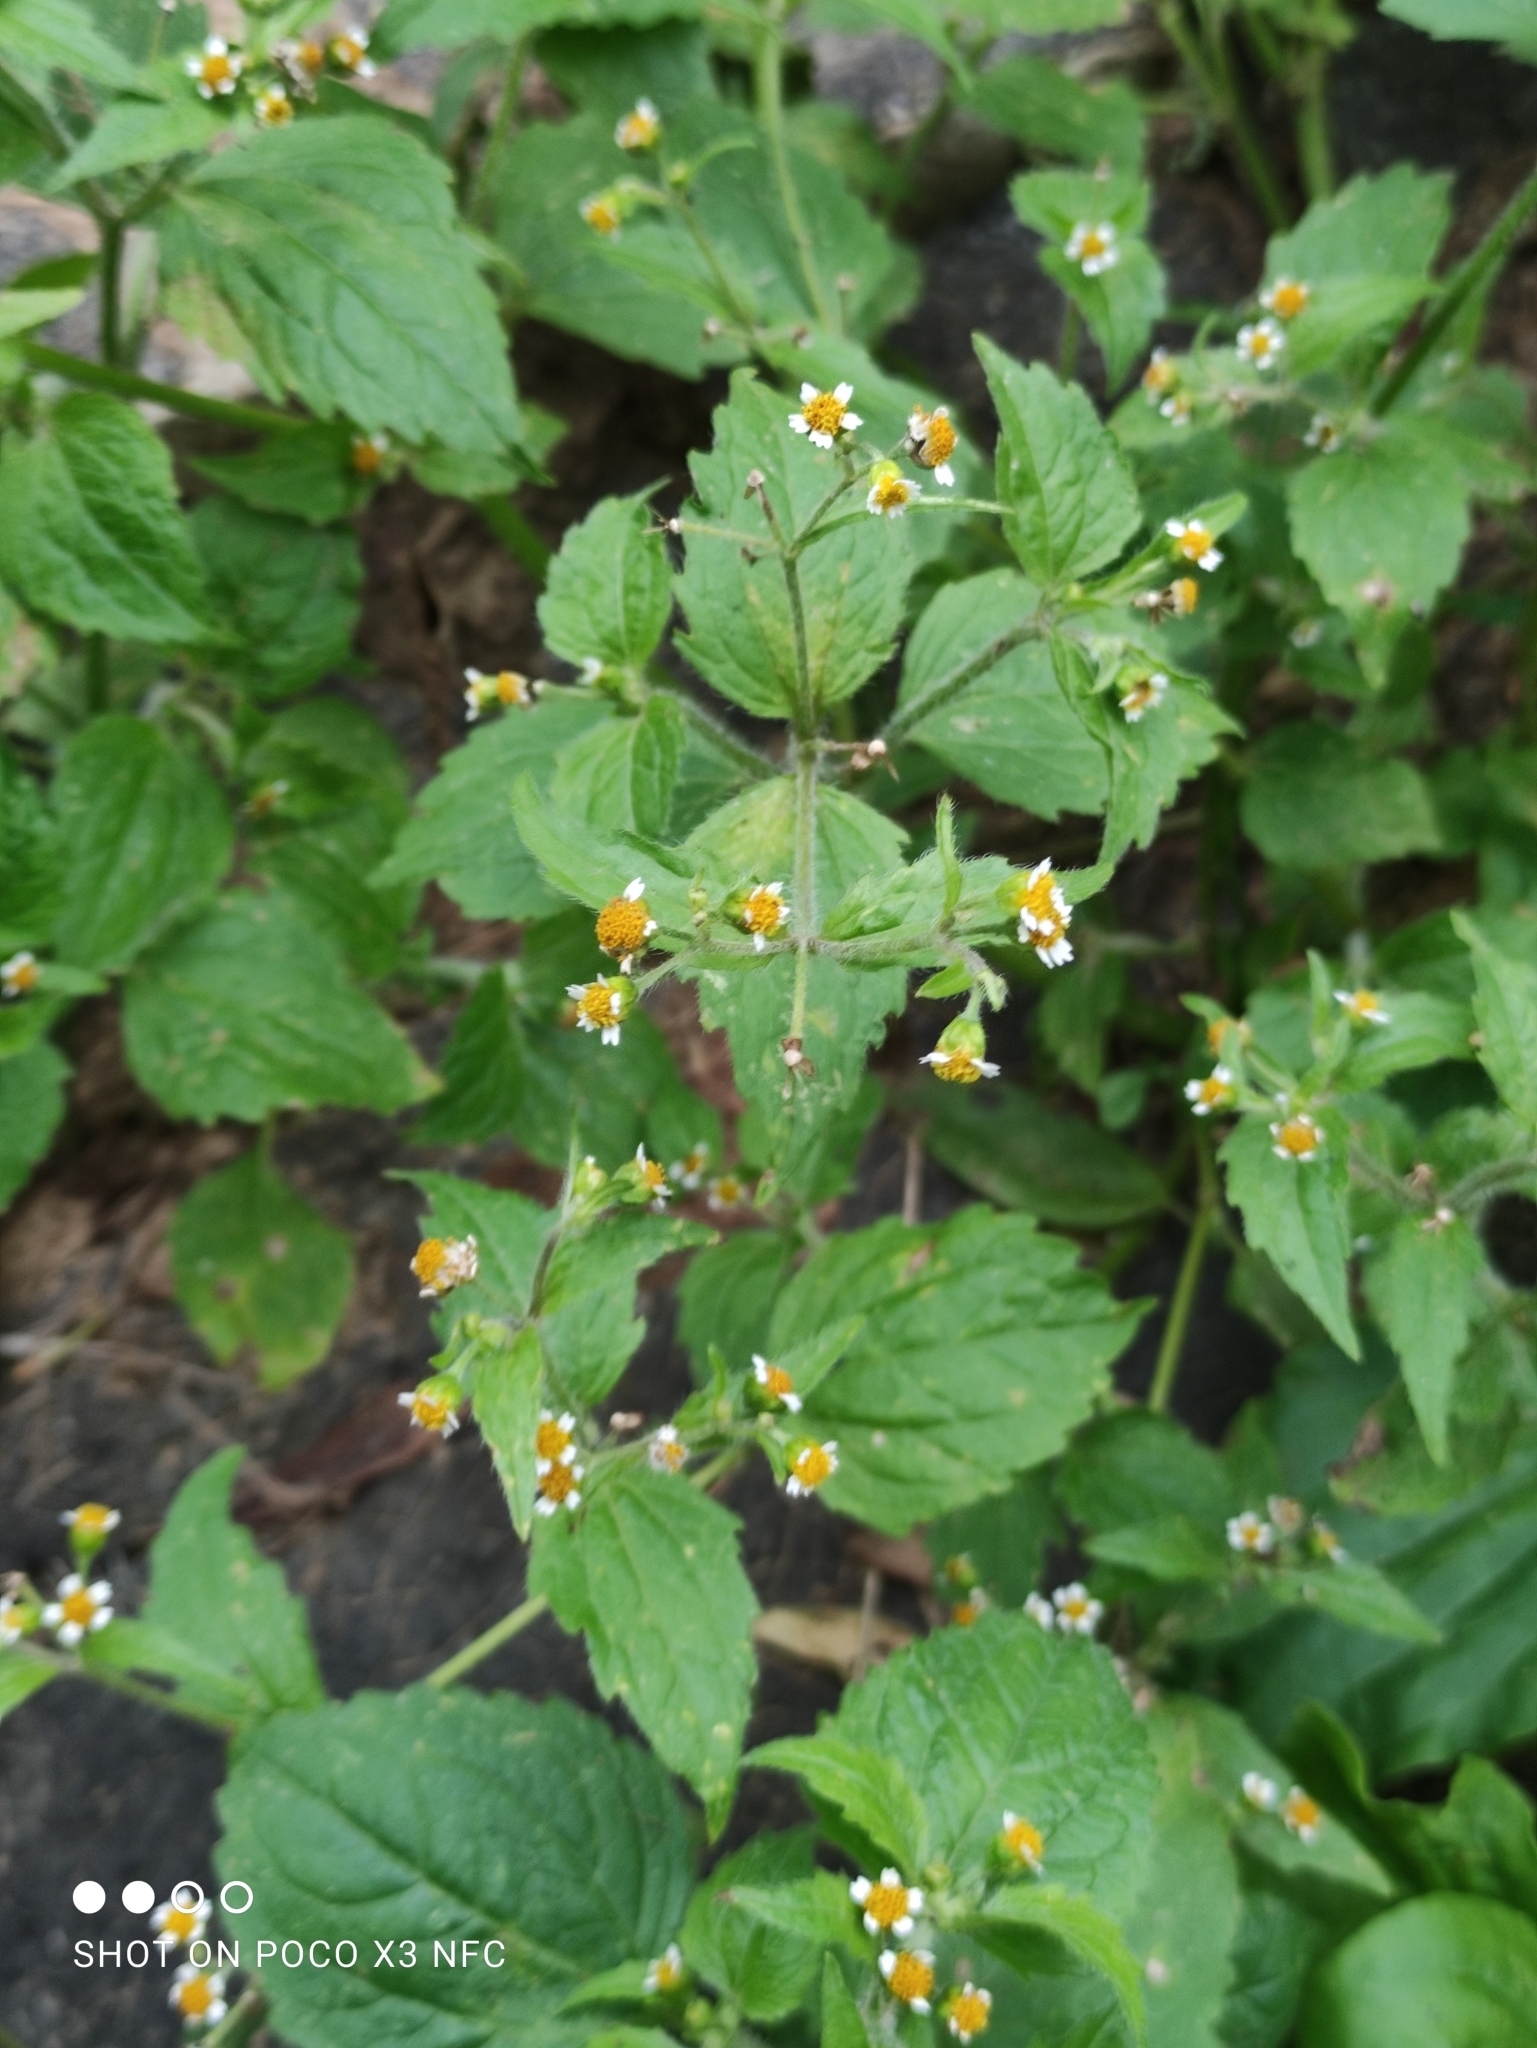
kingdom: Plantae
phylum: Tracheophyta
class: Magnoliopsida
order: Asterales
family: Asteraceae
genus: Galinsoga
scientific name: Galinsoga quadriradiata
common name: Shaggy soldier
